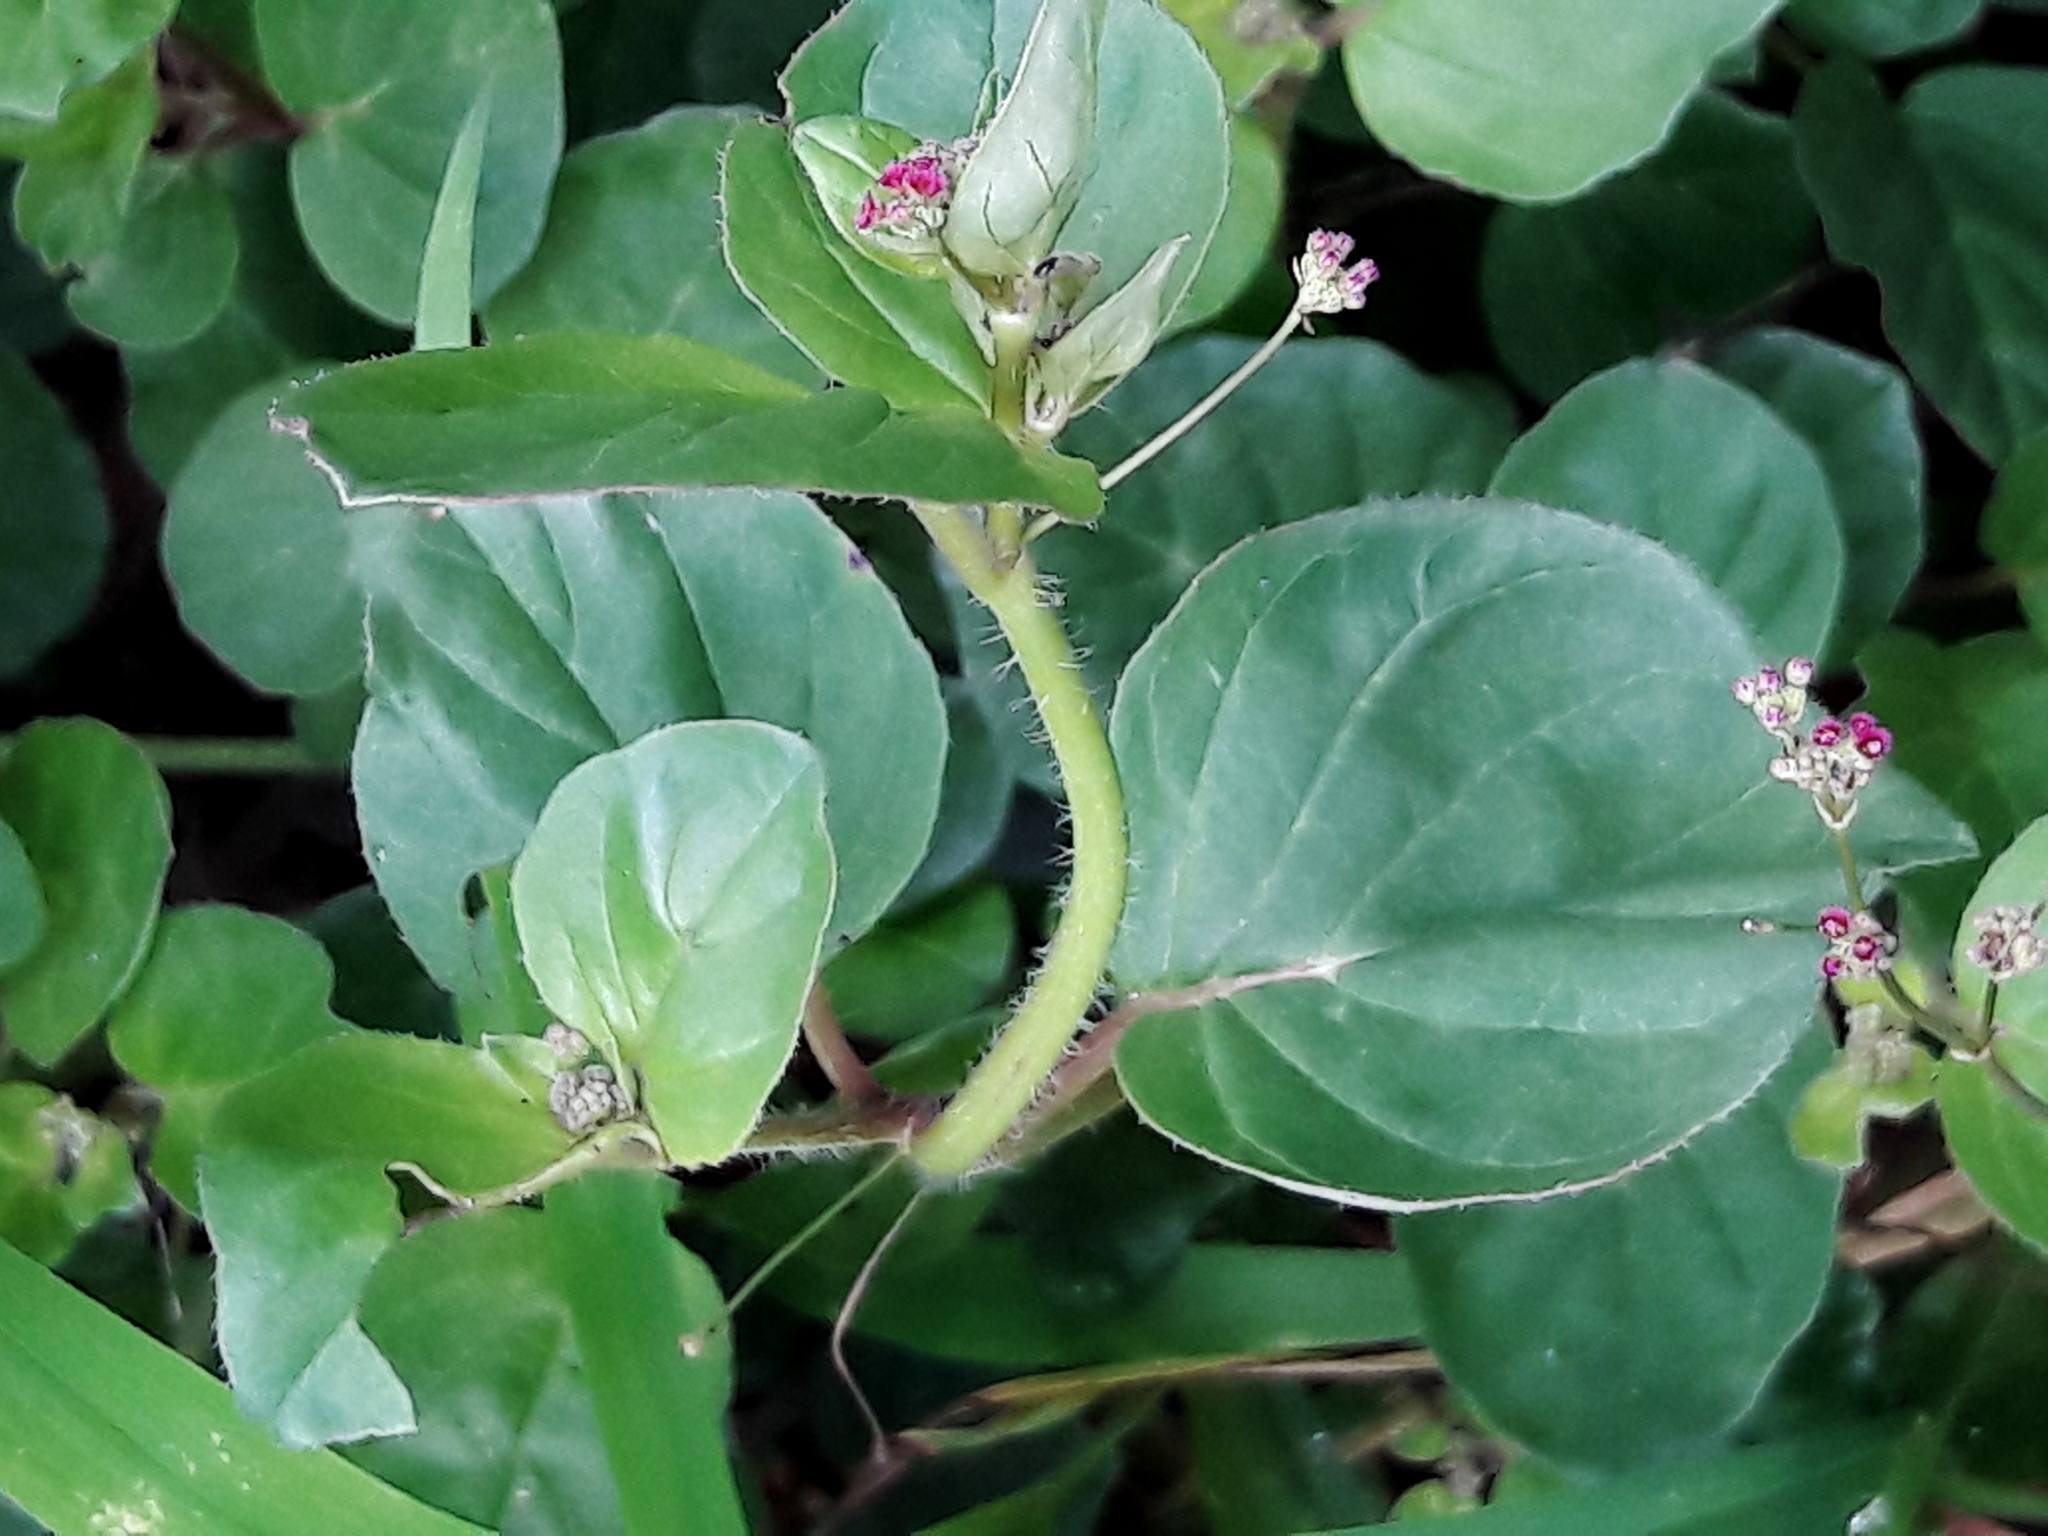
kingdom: Plantae
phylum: Tracheophyta
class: Magnoliopsida
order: Caryophyllales
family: Nyctaginaceae
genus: Boerhavia
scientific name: Boerhavia diffusa
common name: Red spiderling
